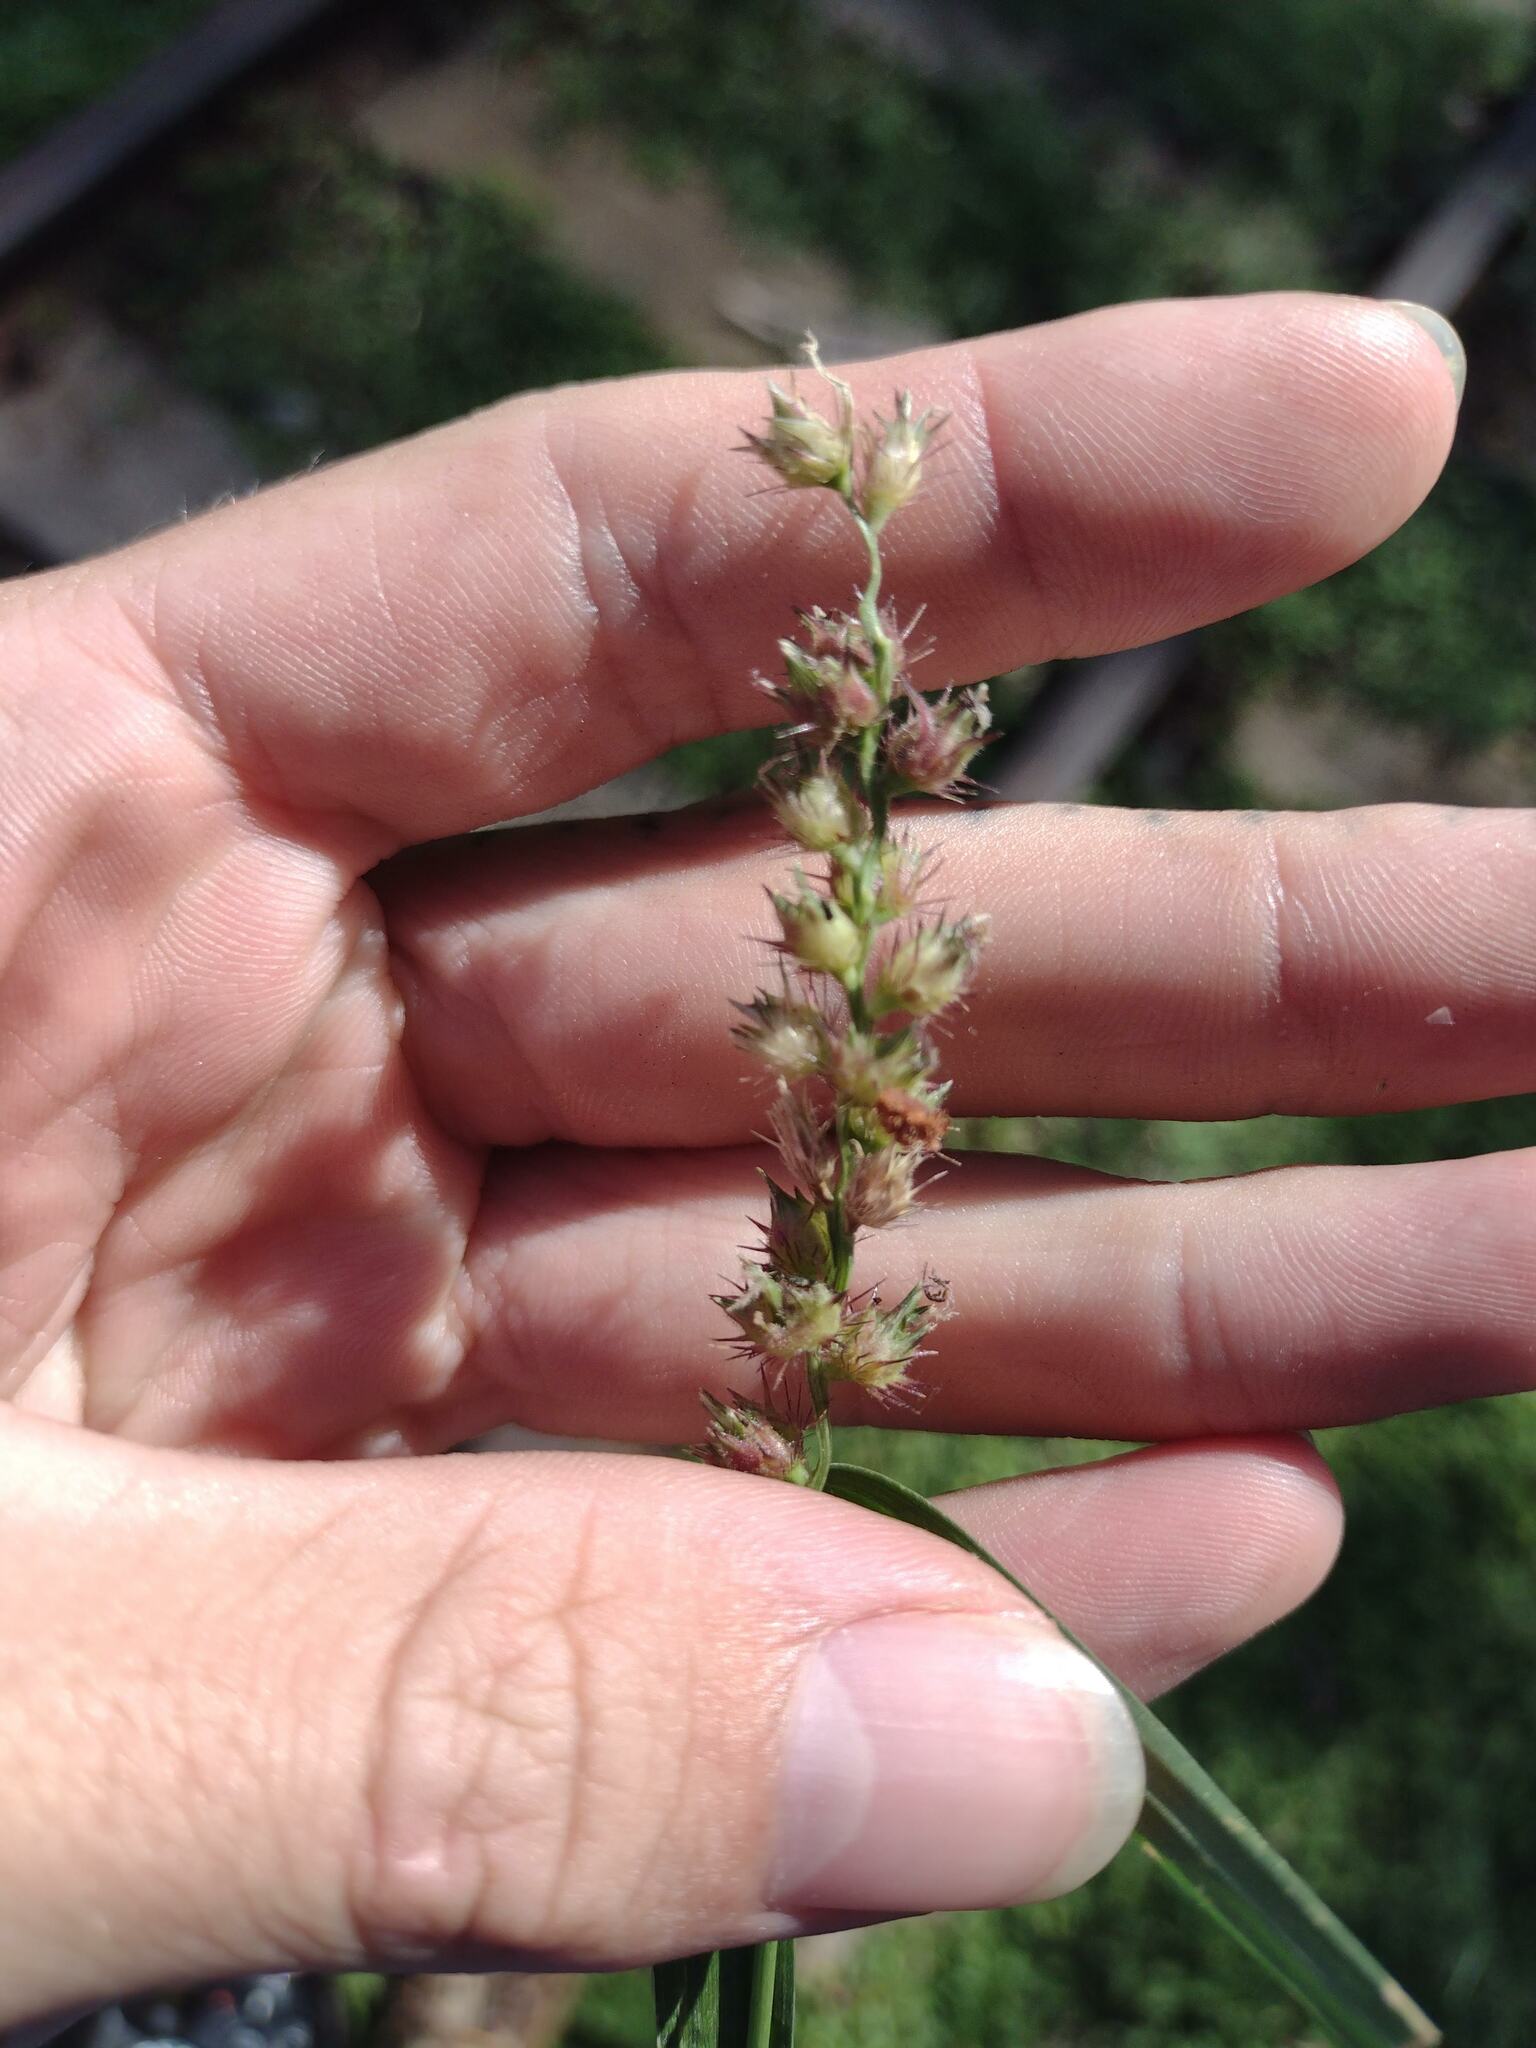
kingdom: Plantae
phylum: Tracheophyta
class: Liliopsida
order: Poales
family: Poaceae
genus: Cenchrus
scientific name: Cenchrus echinatus
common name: Southern sandbur
